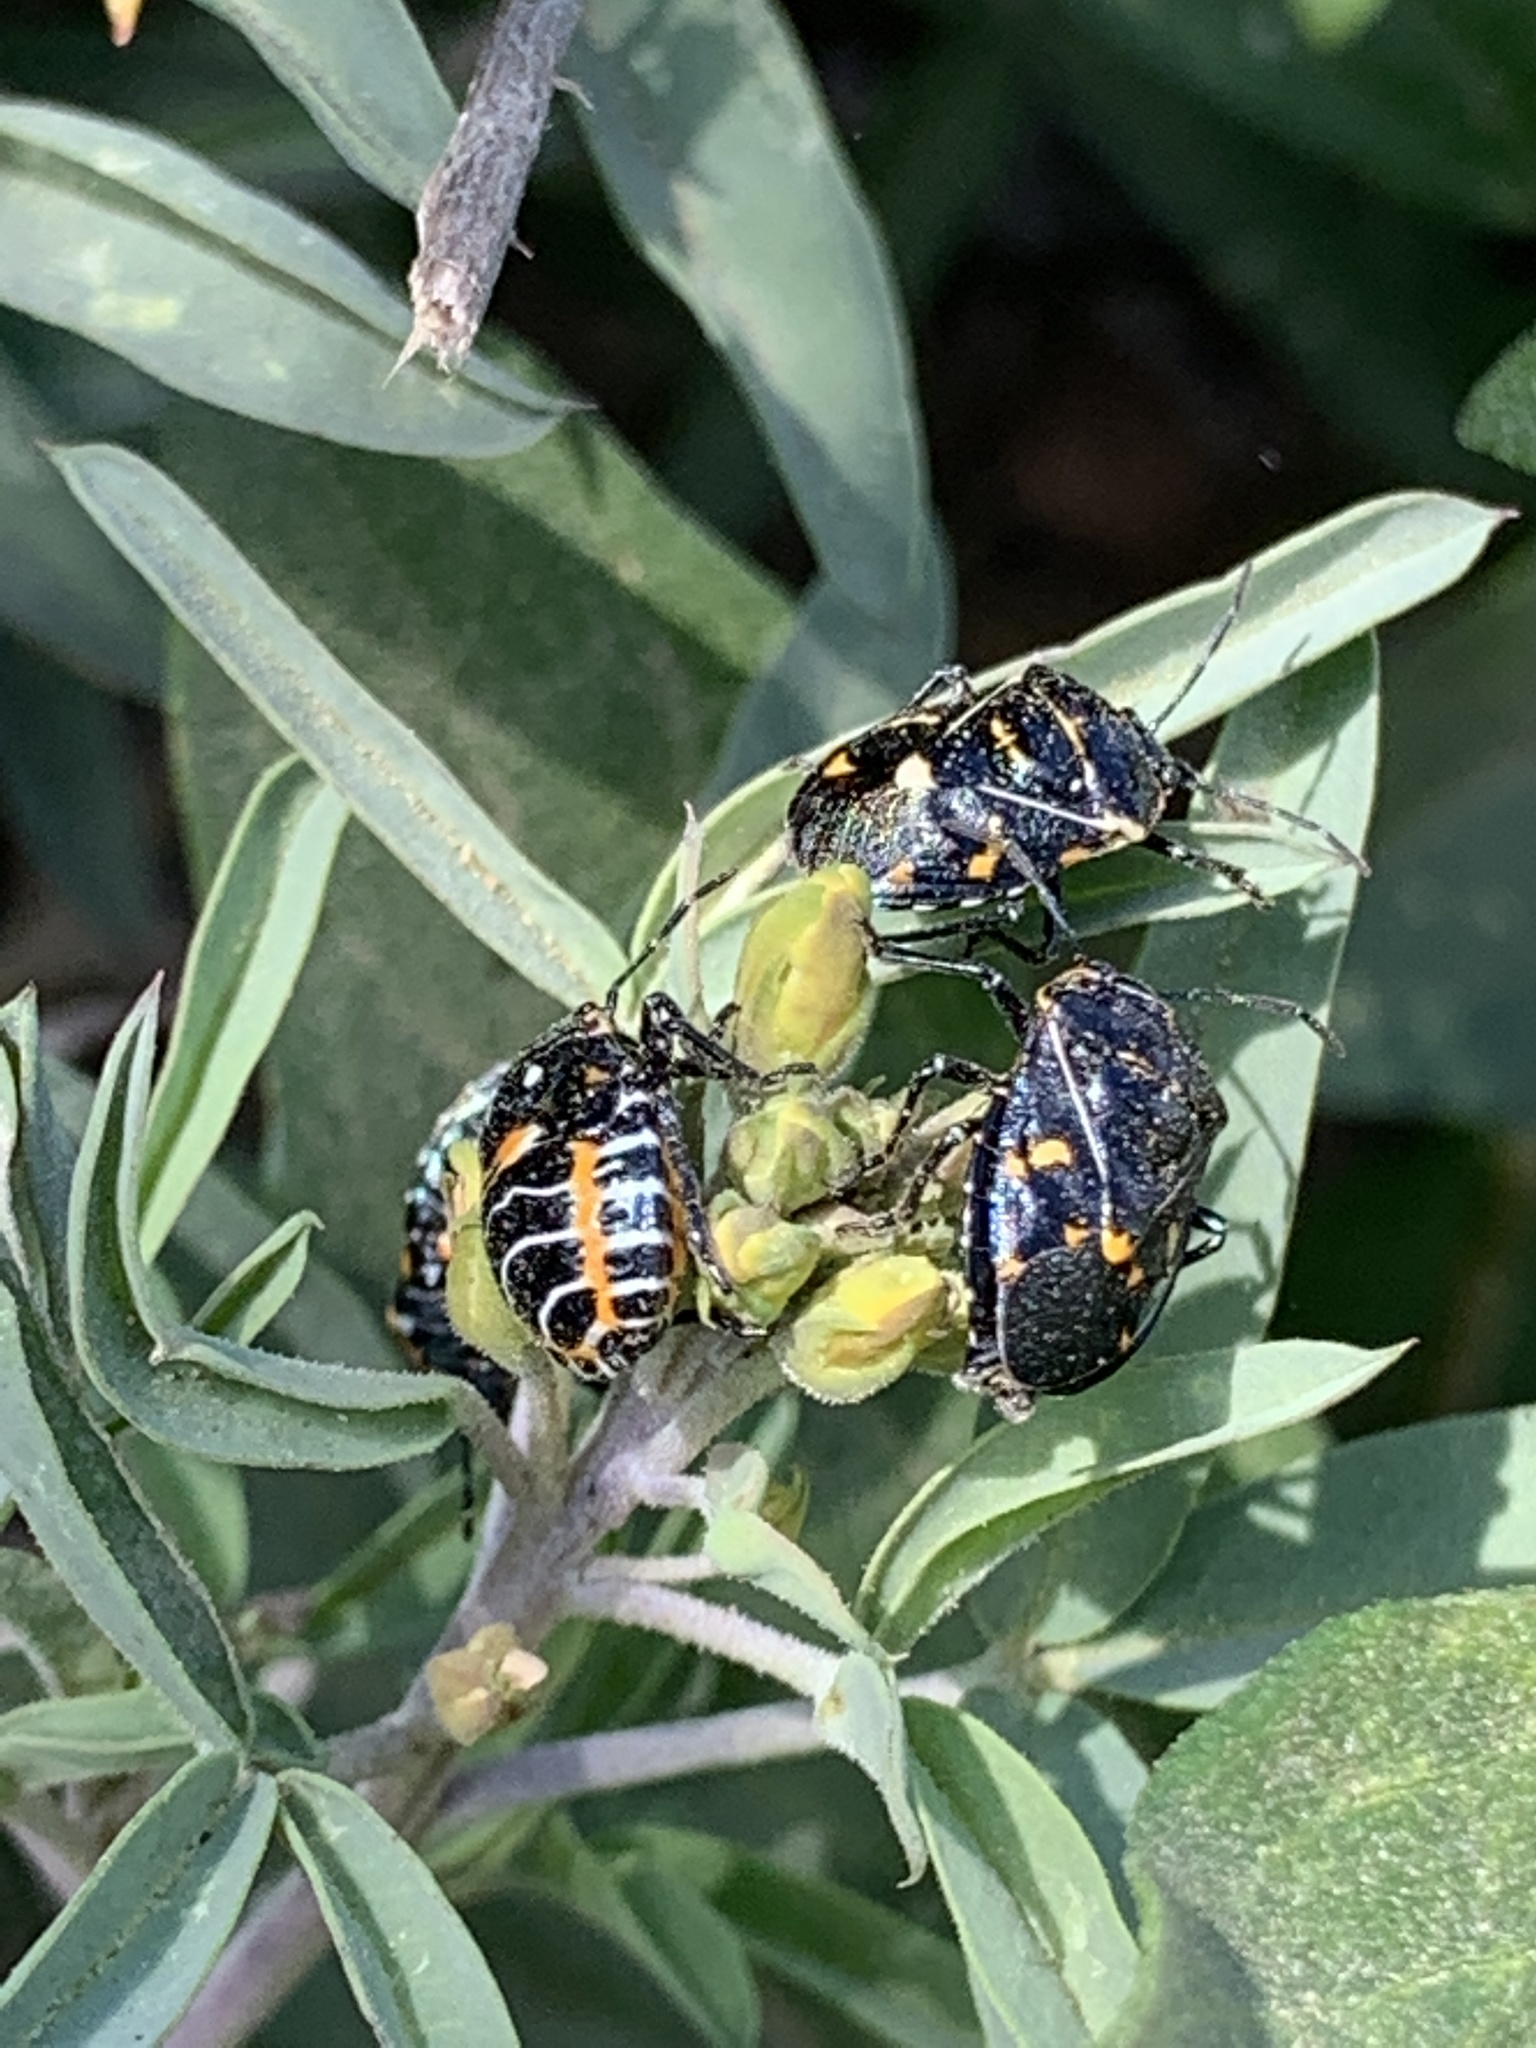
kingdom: Animalia
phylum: Arthropoda
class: Insecta
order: Hemiptera
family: Pentatomidae
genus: Murgantia
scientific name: Murgantia histrionica
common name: Harlequin bug
